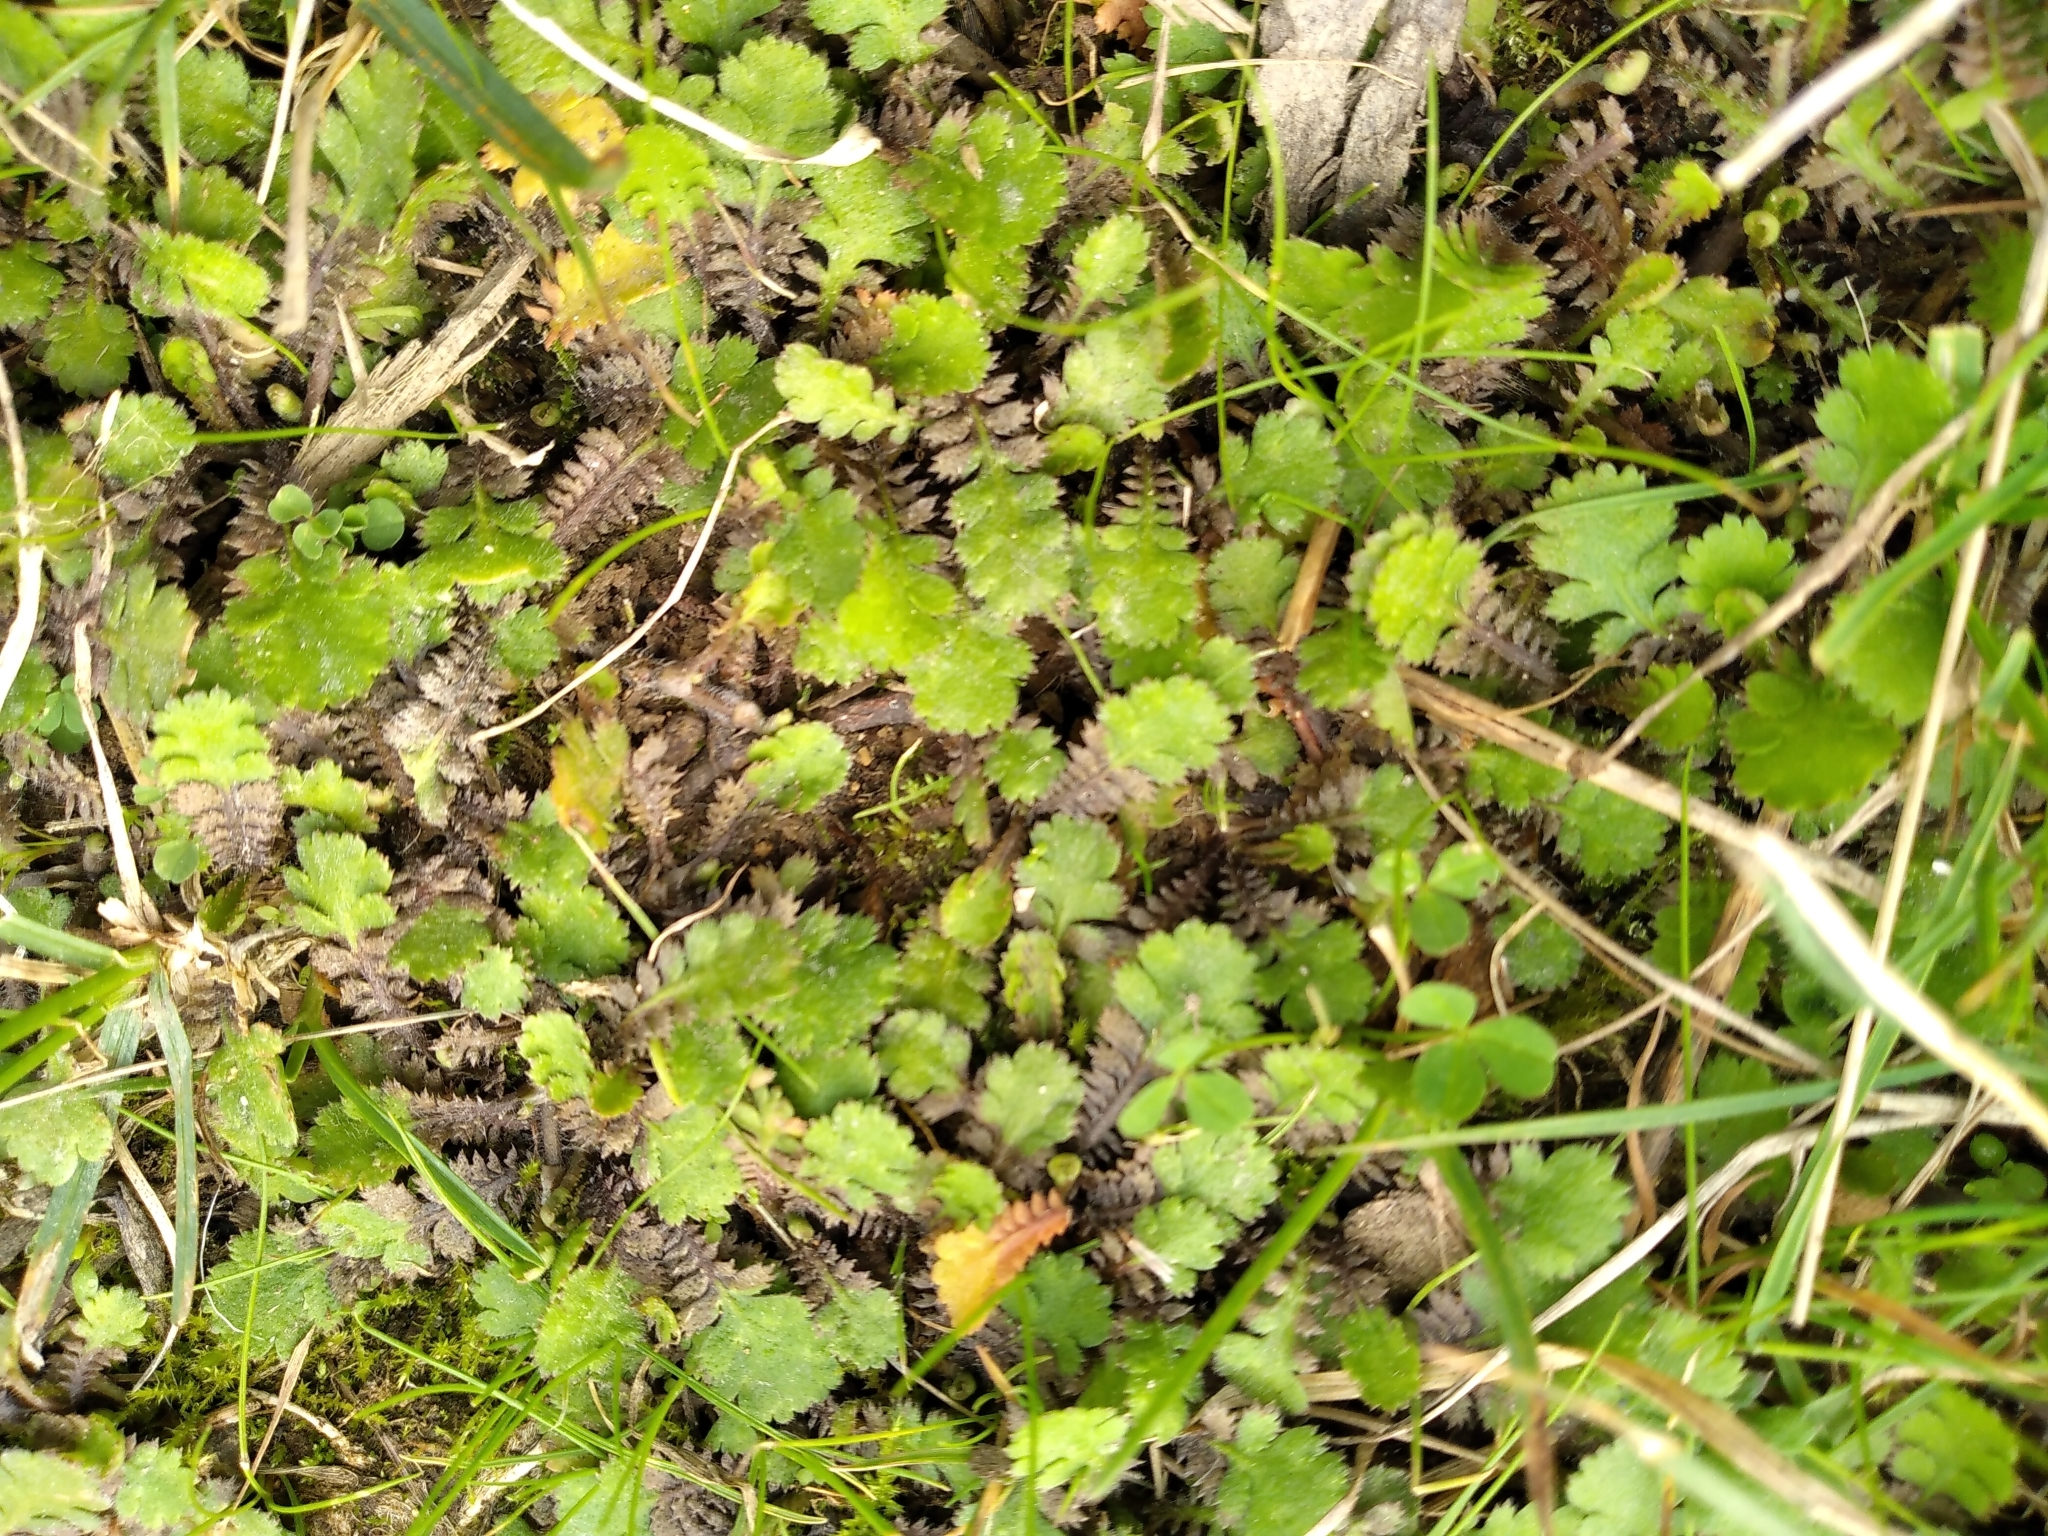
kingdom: Plantae
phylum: Tracheophyta
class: Magnoliopsida
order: Asterales
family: Asteraceae
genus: Leptinella
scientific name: Leptinella squalida
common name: New zealand brass-buttons
